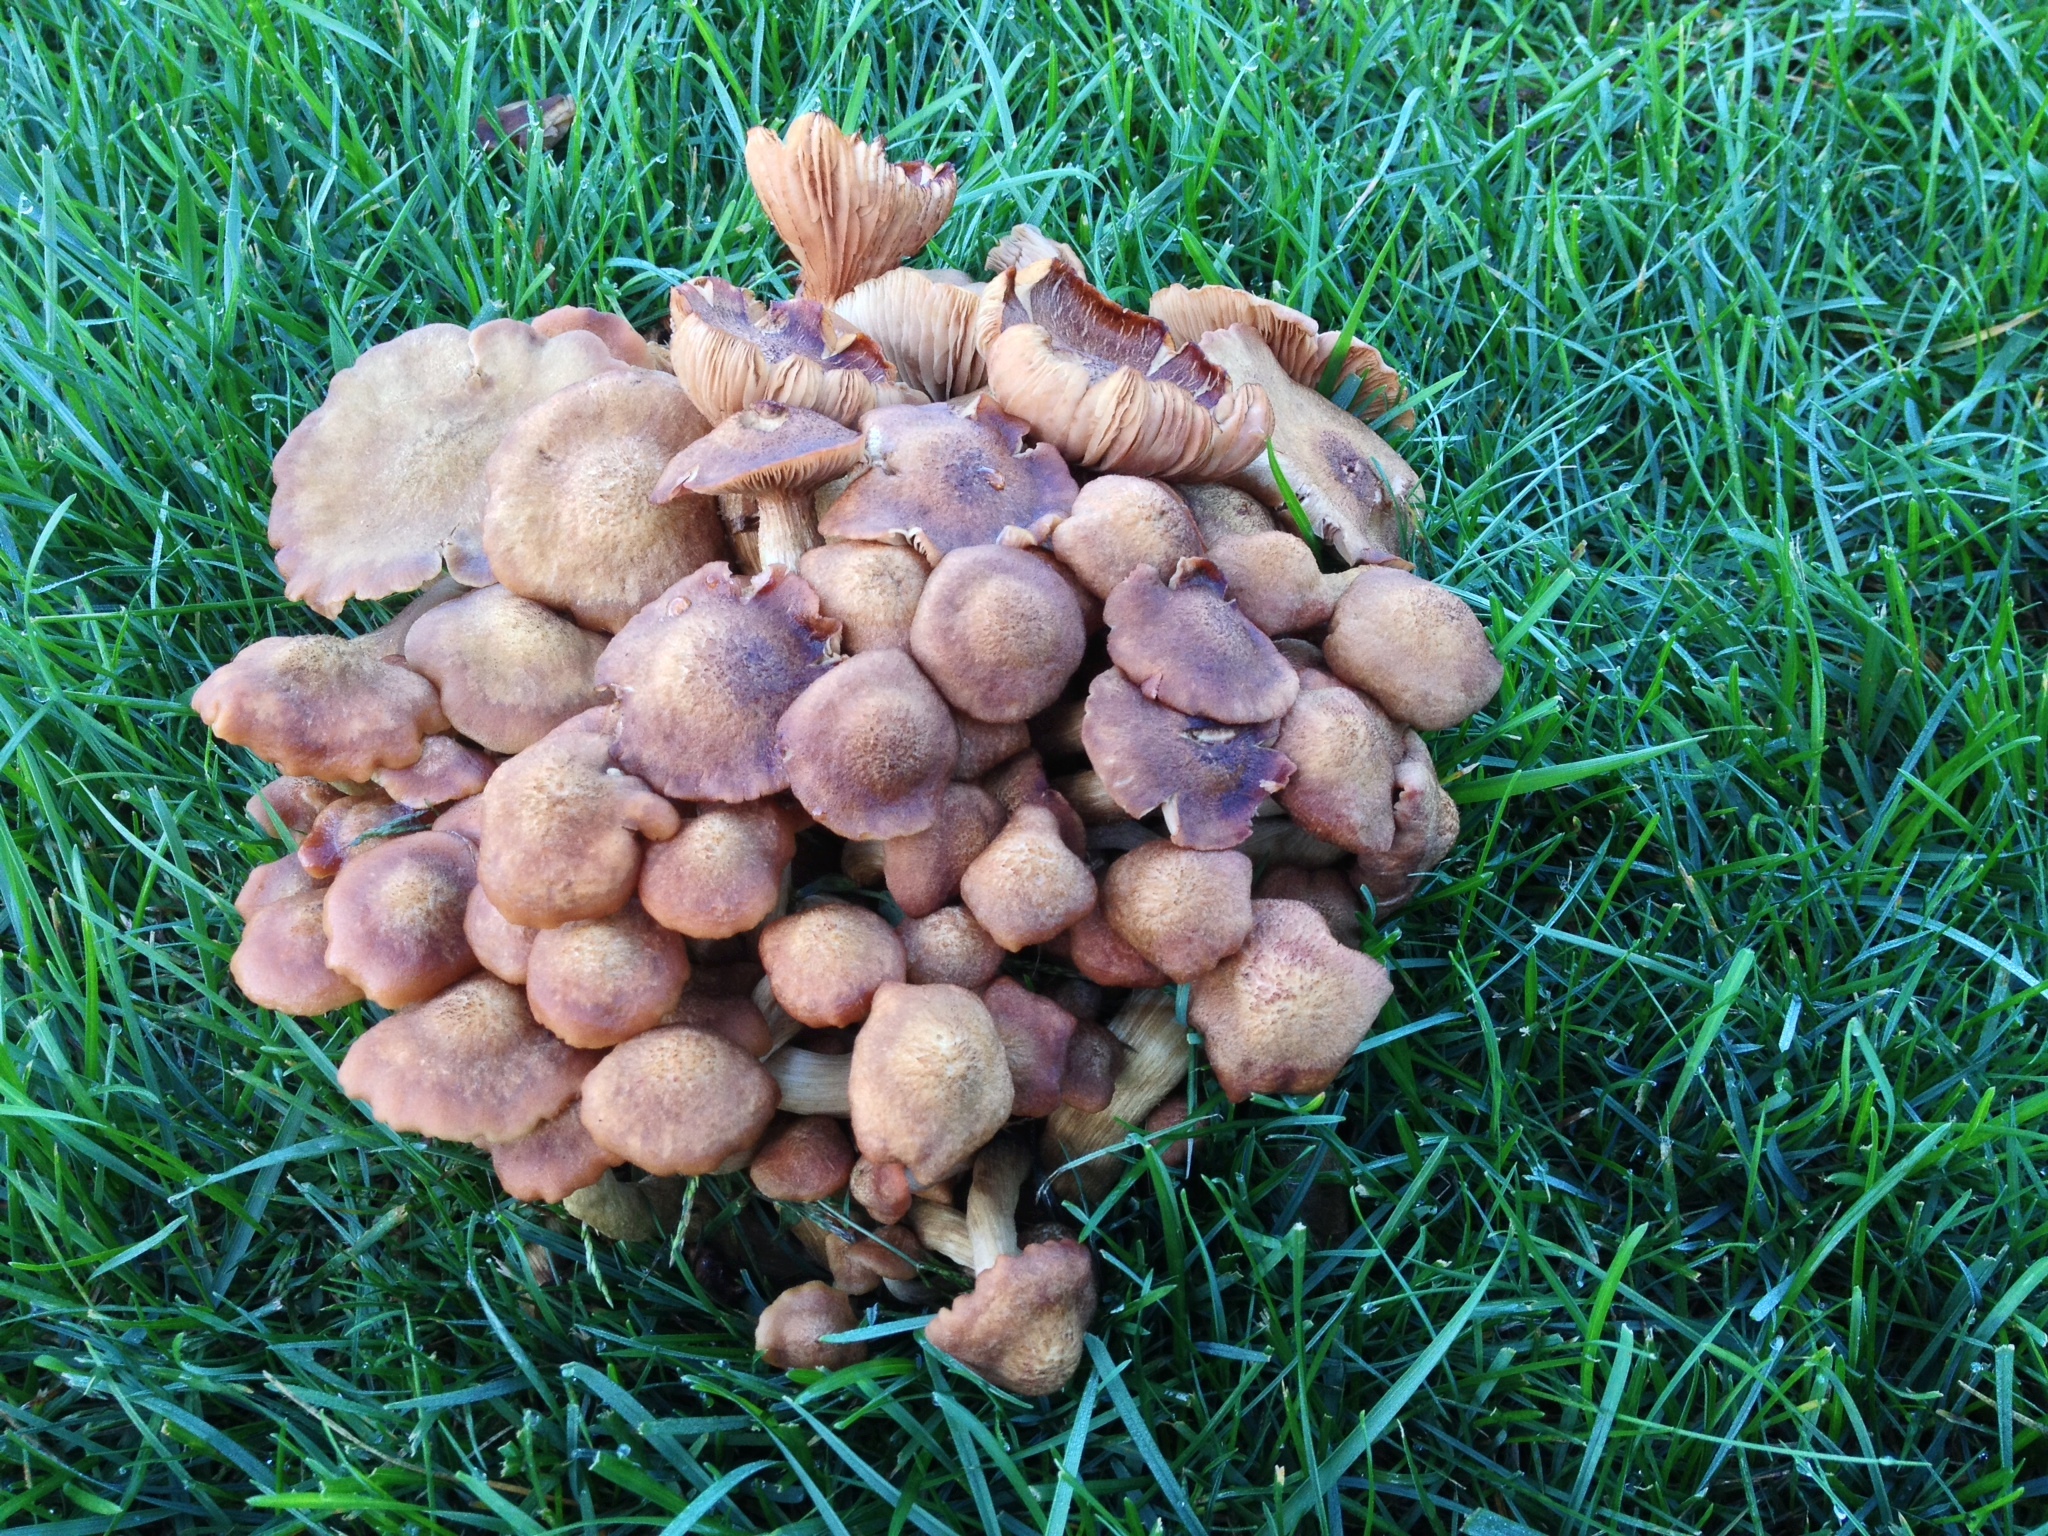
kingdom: Fungi
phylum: Basidiomycota
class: Agaricomycetes
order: Agaricales
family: Physalacriaceae
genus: Desarmillaria
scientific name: Desarmillaria caespitosa
